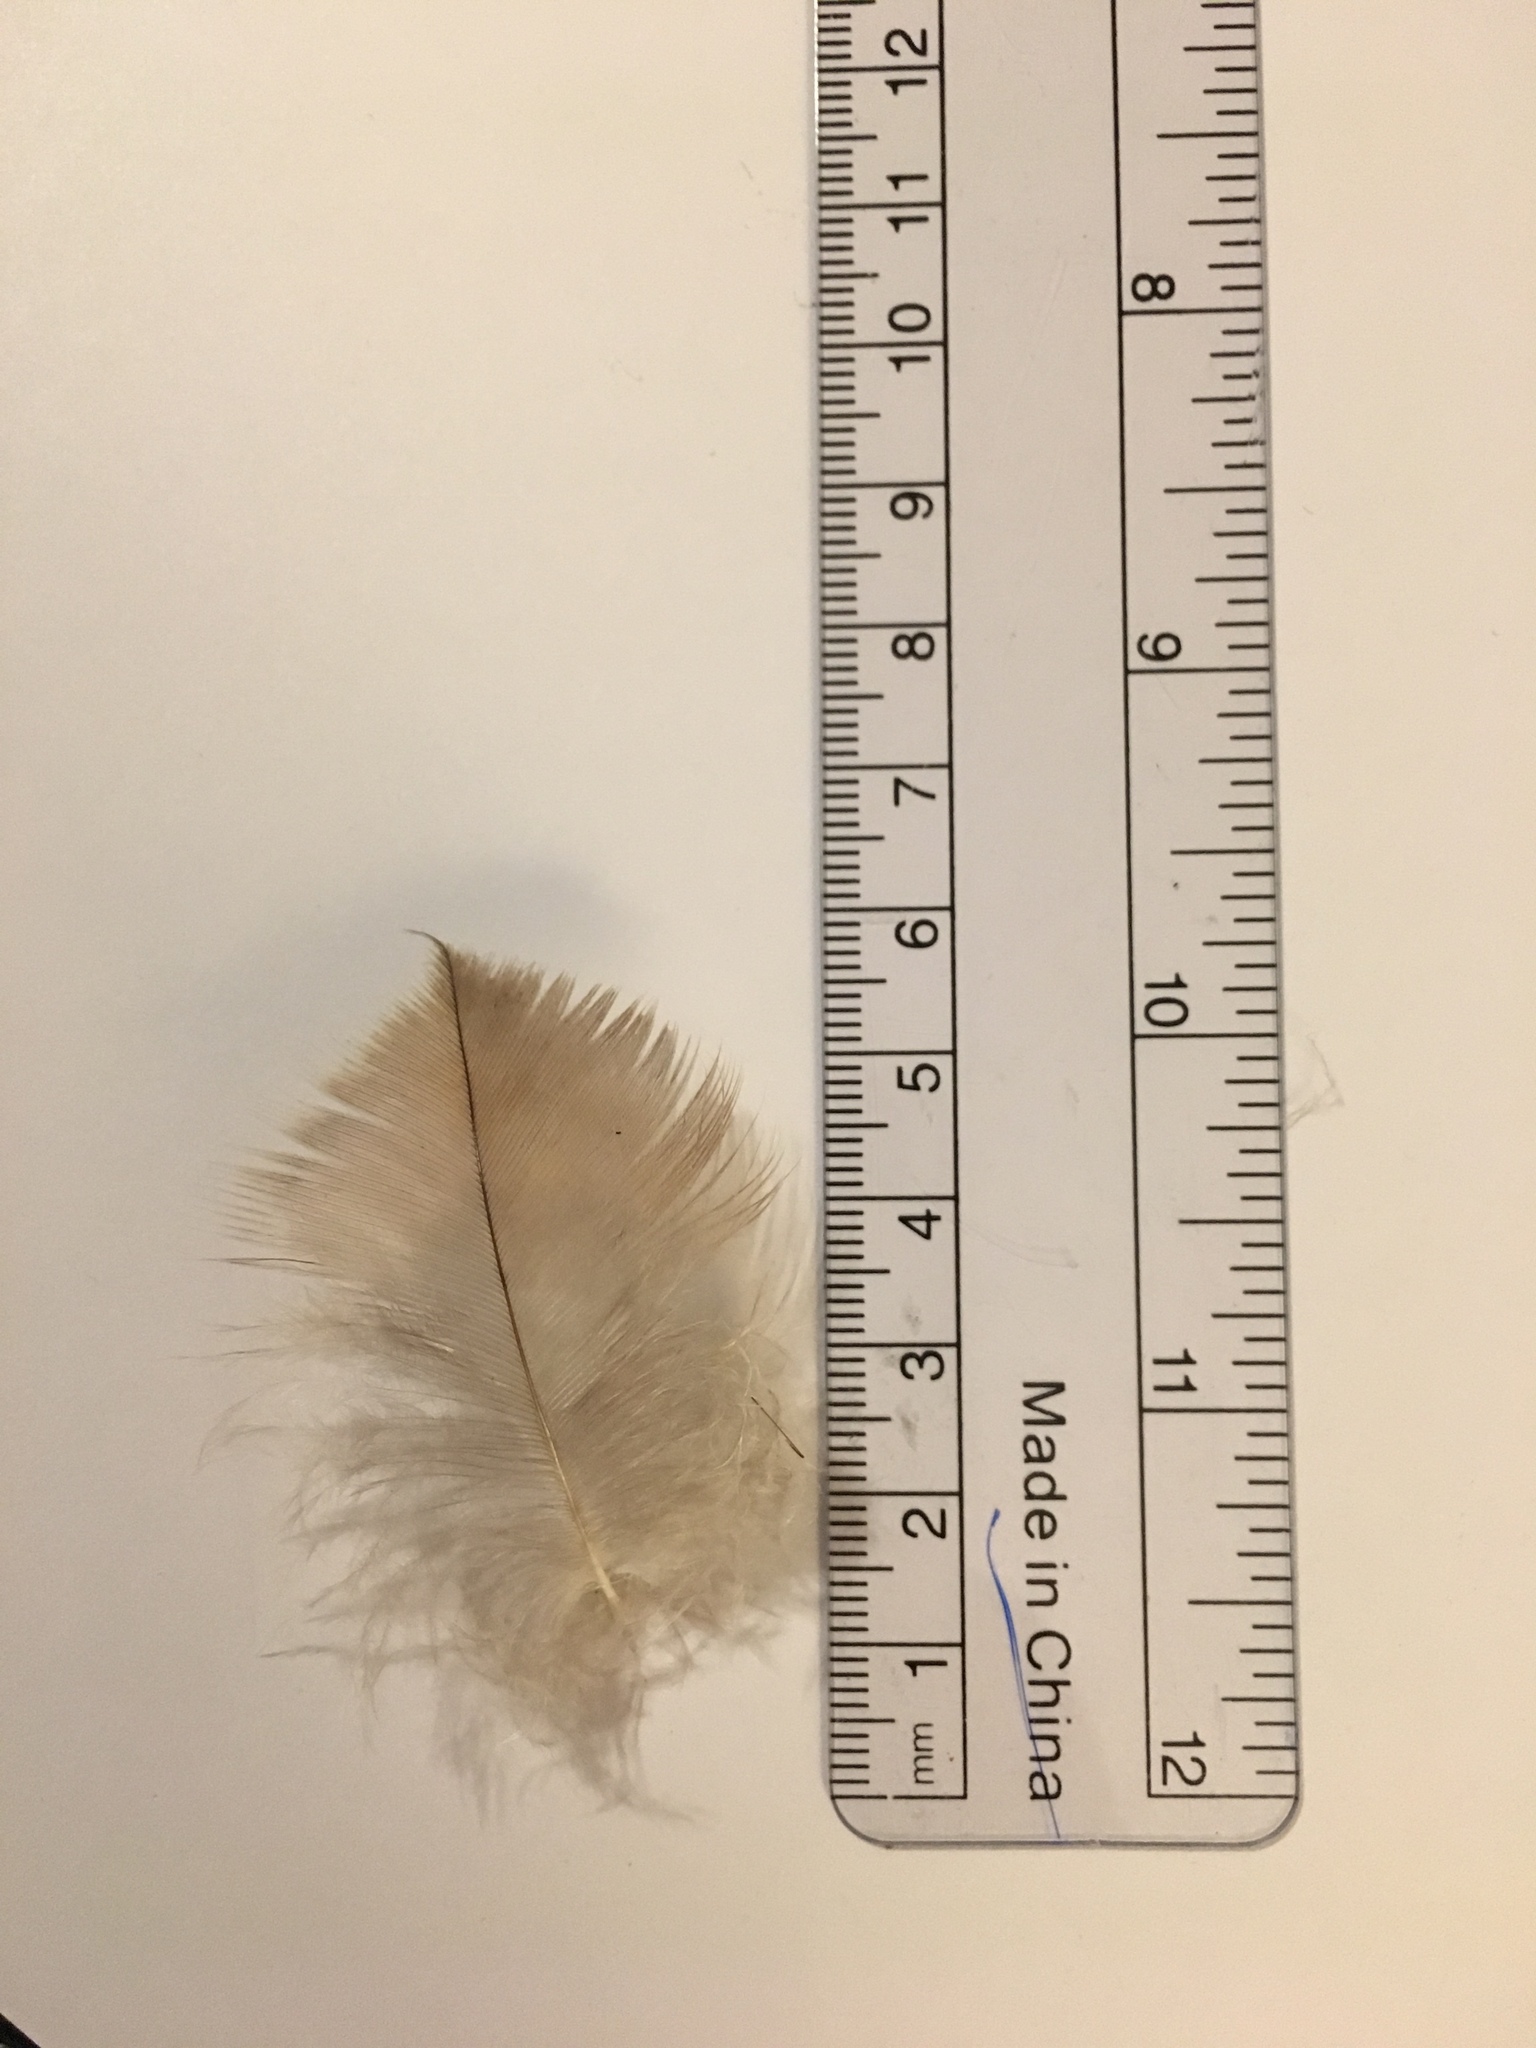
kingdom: Animalia
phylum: Chordata
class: Aves
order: Accipitriformes
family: Accipitridae
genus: Buteo
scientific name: Buteo jamaicensis
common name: Red-tailed hawk
